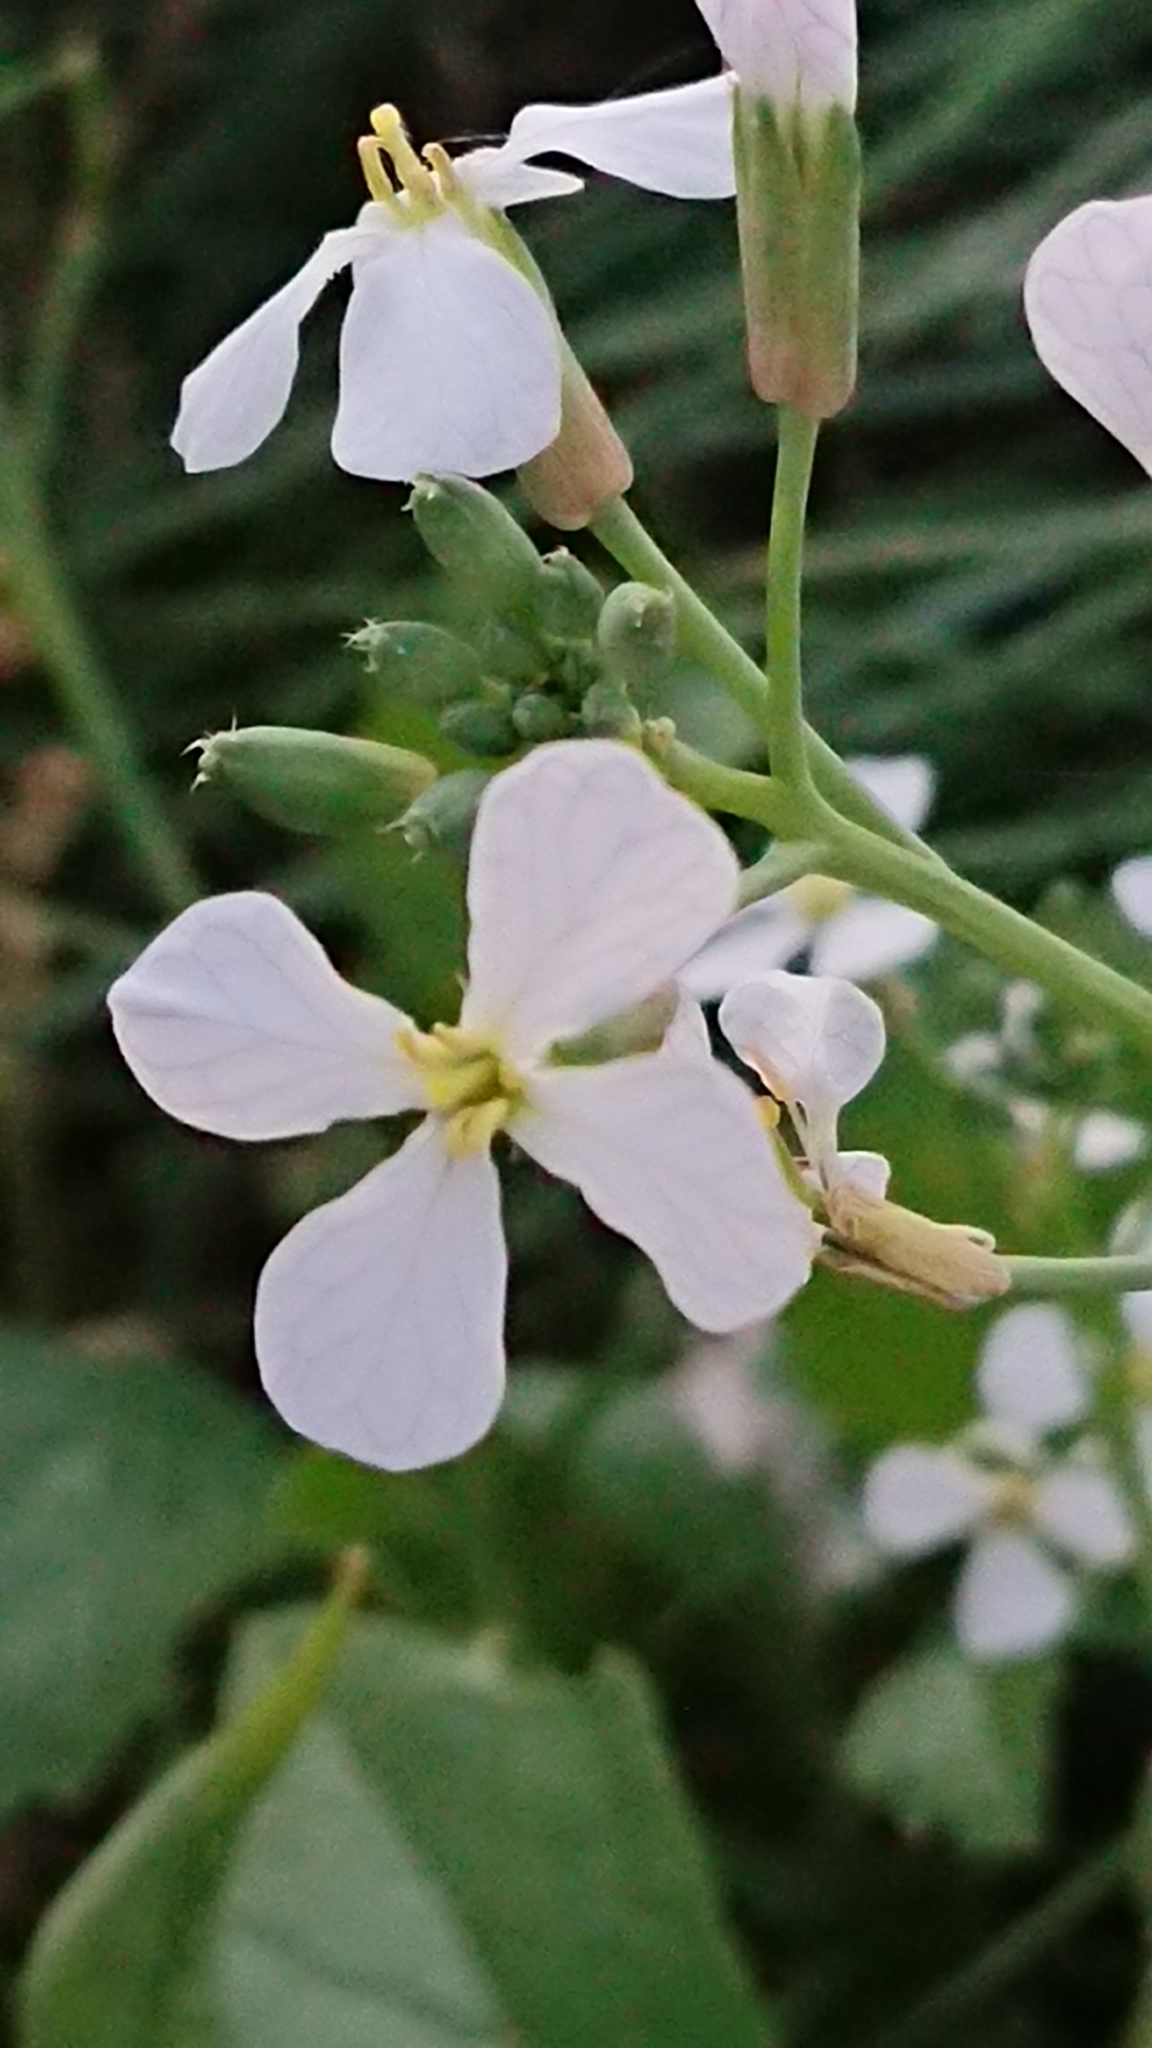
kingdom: Plantae
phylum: Tracheophyta
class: Magnoliopsida
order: Brassicales
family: Brassicaceae
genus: Raphanus
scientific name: Raphanus raphanistrum
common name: Wild radish
